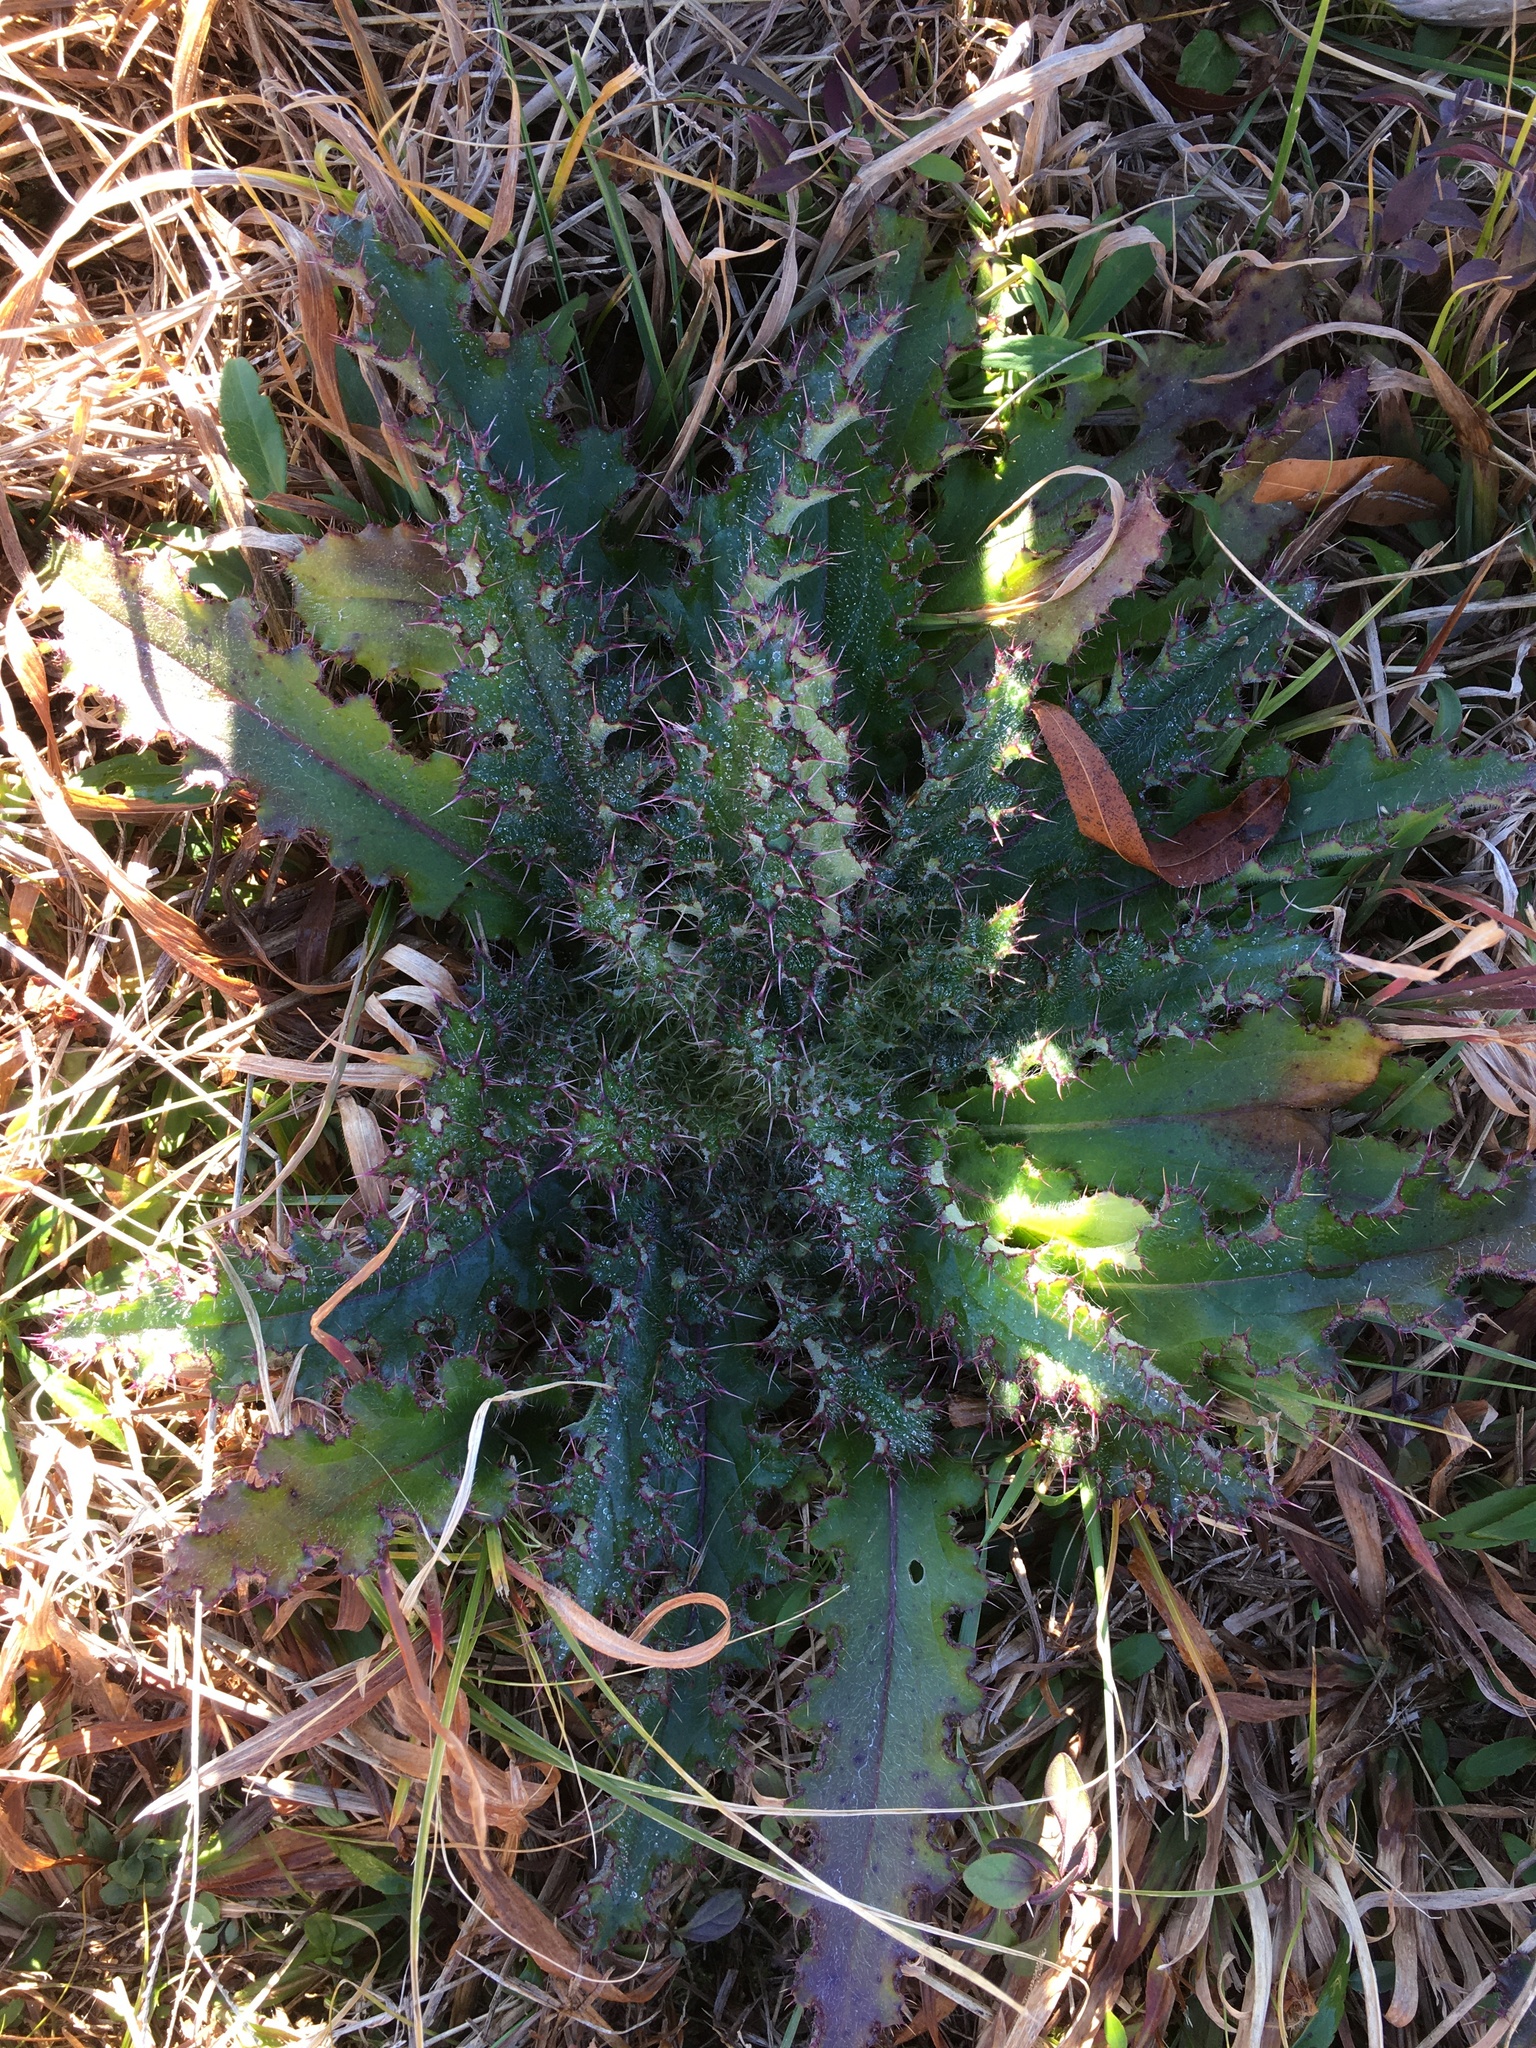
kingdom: Plantae
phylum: Tracheophyta
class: Magnoliopsida
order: Asterales
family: Asteraceae
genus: Cirsium
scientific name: Cirsium horridulum
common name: Bristly thistle
